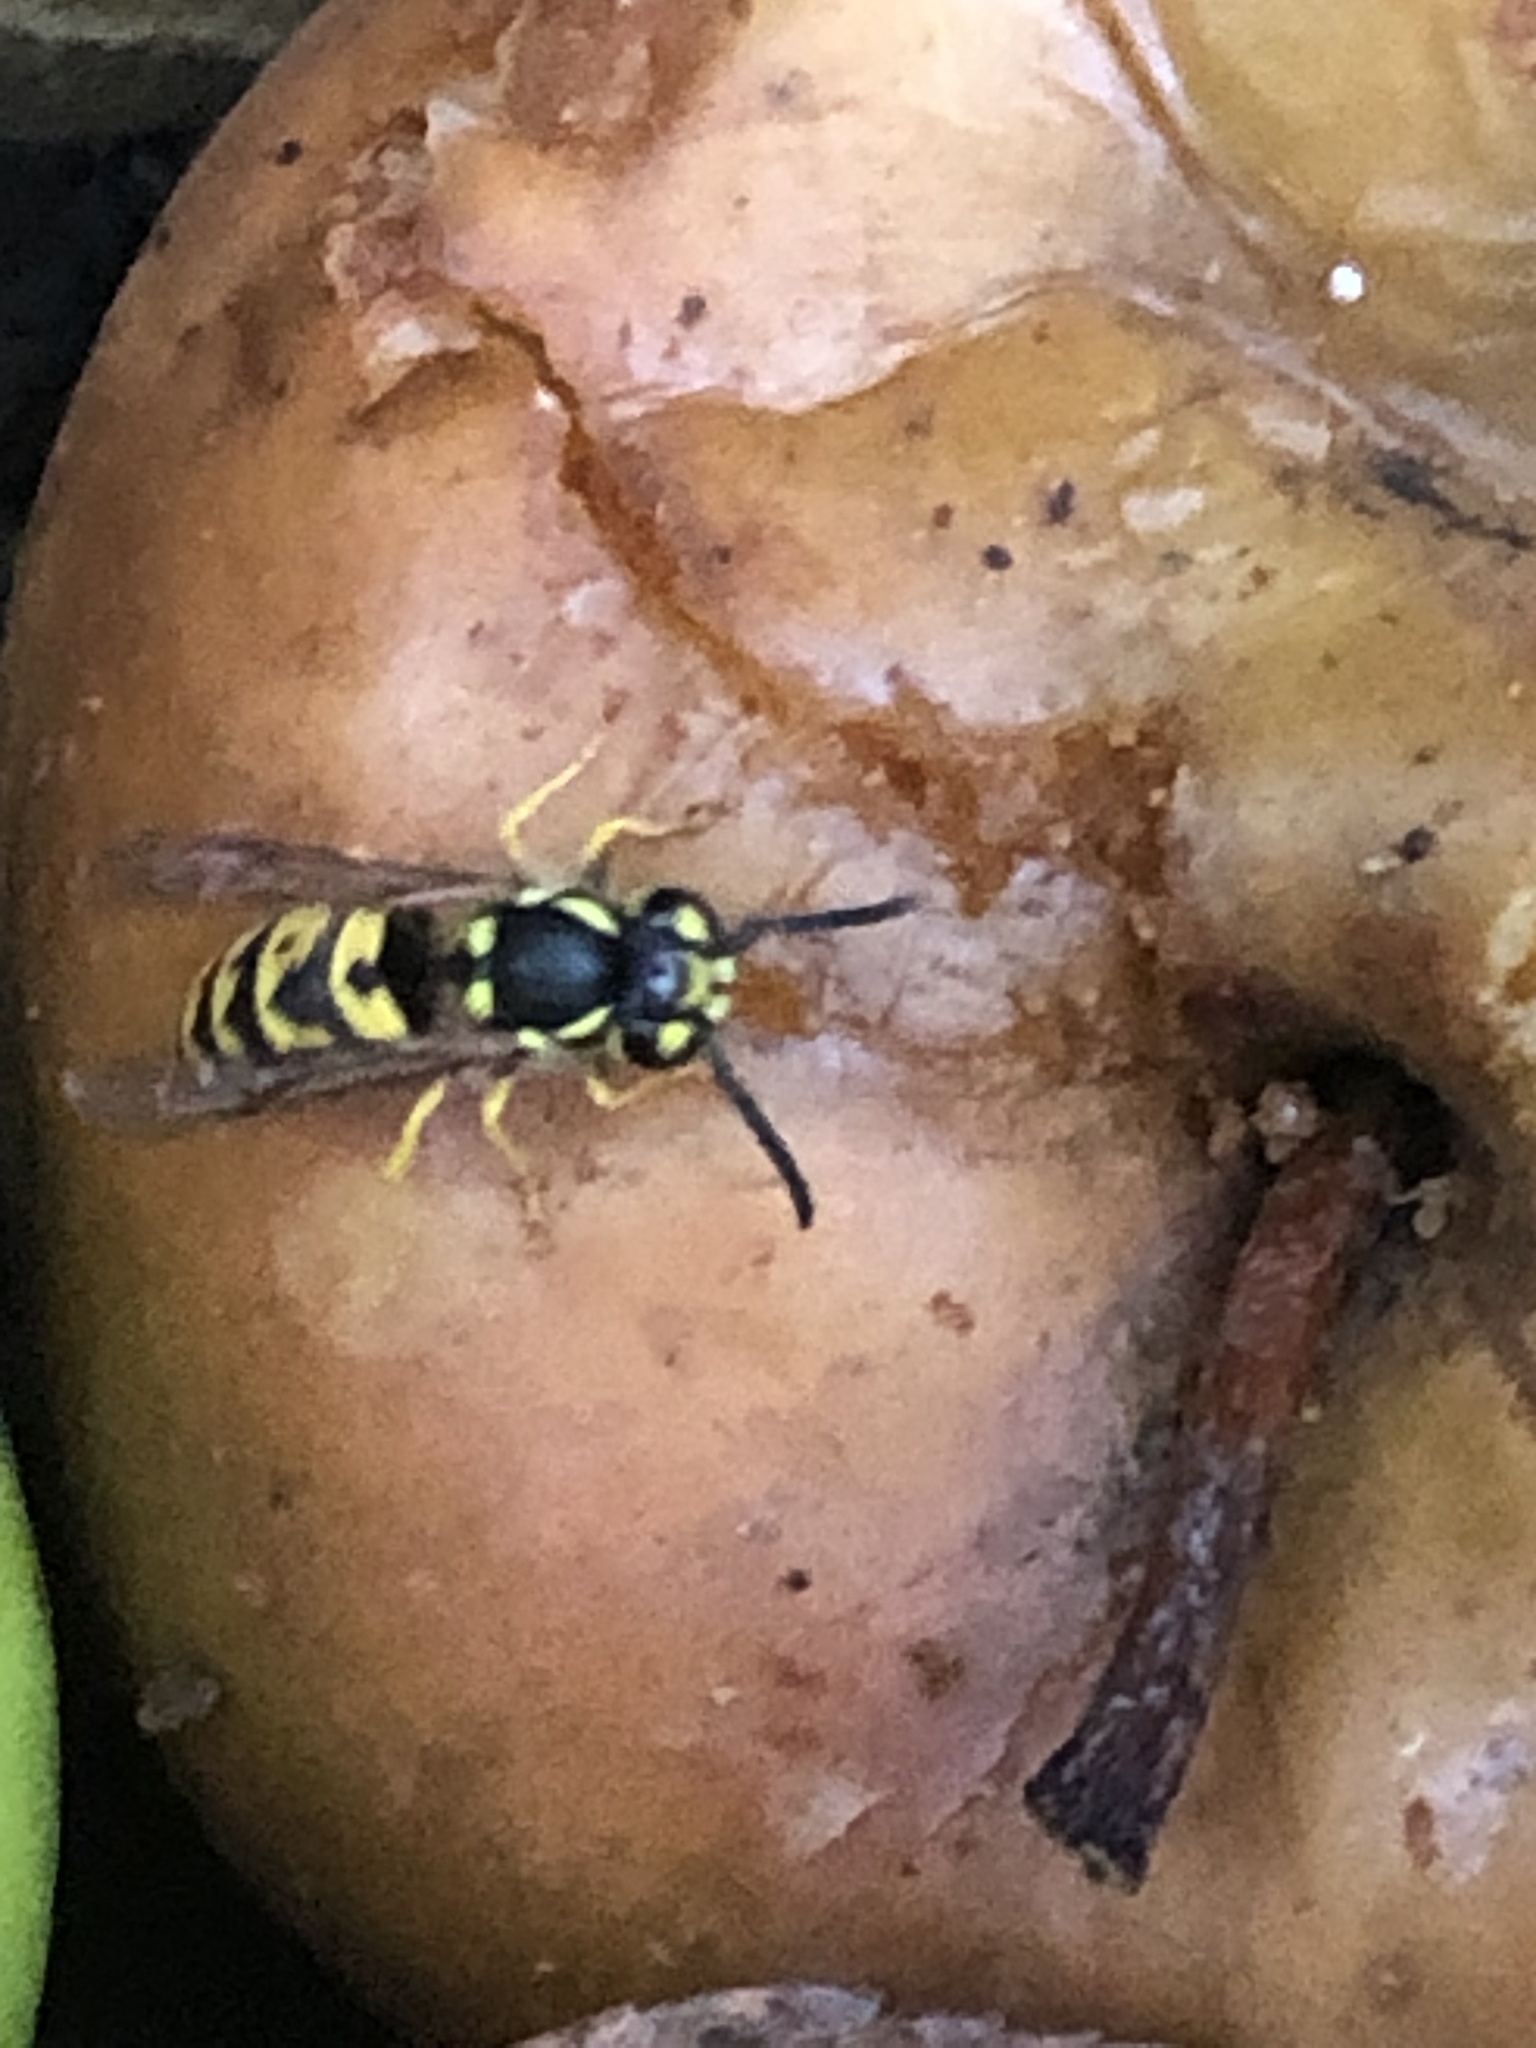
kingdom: Animalia
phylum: Arthropoda
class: Insecta
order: Hymenoptera
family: Vespidae
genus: Vespula
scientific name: Vespula germanica
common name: German wasp
